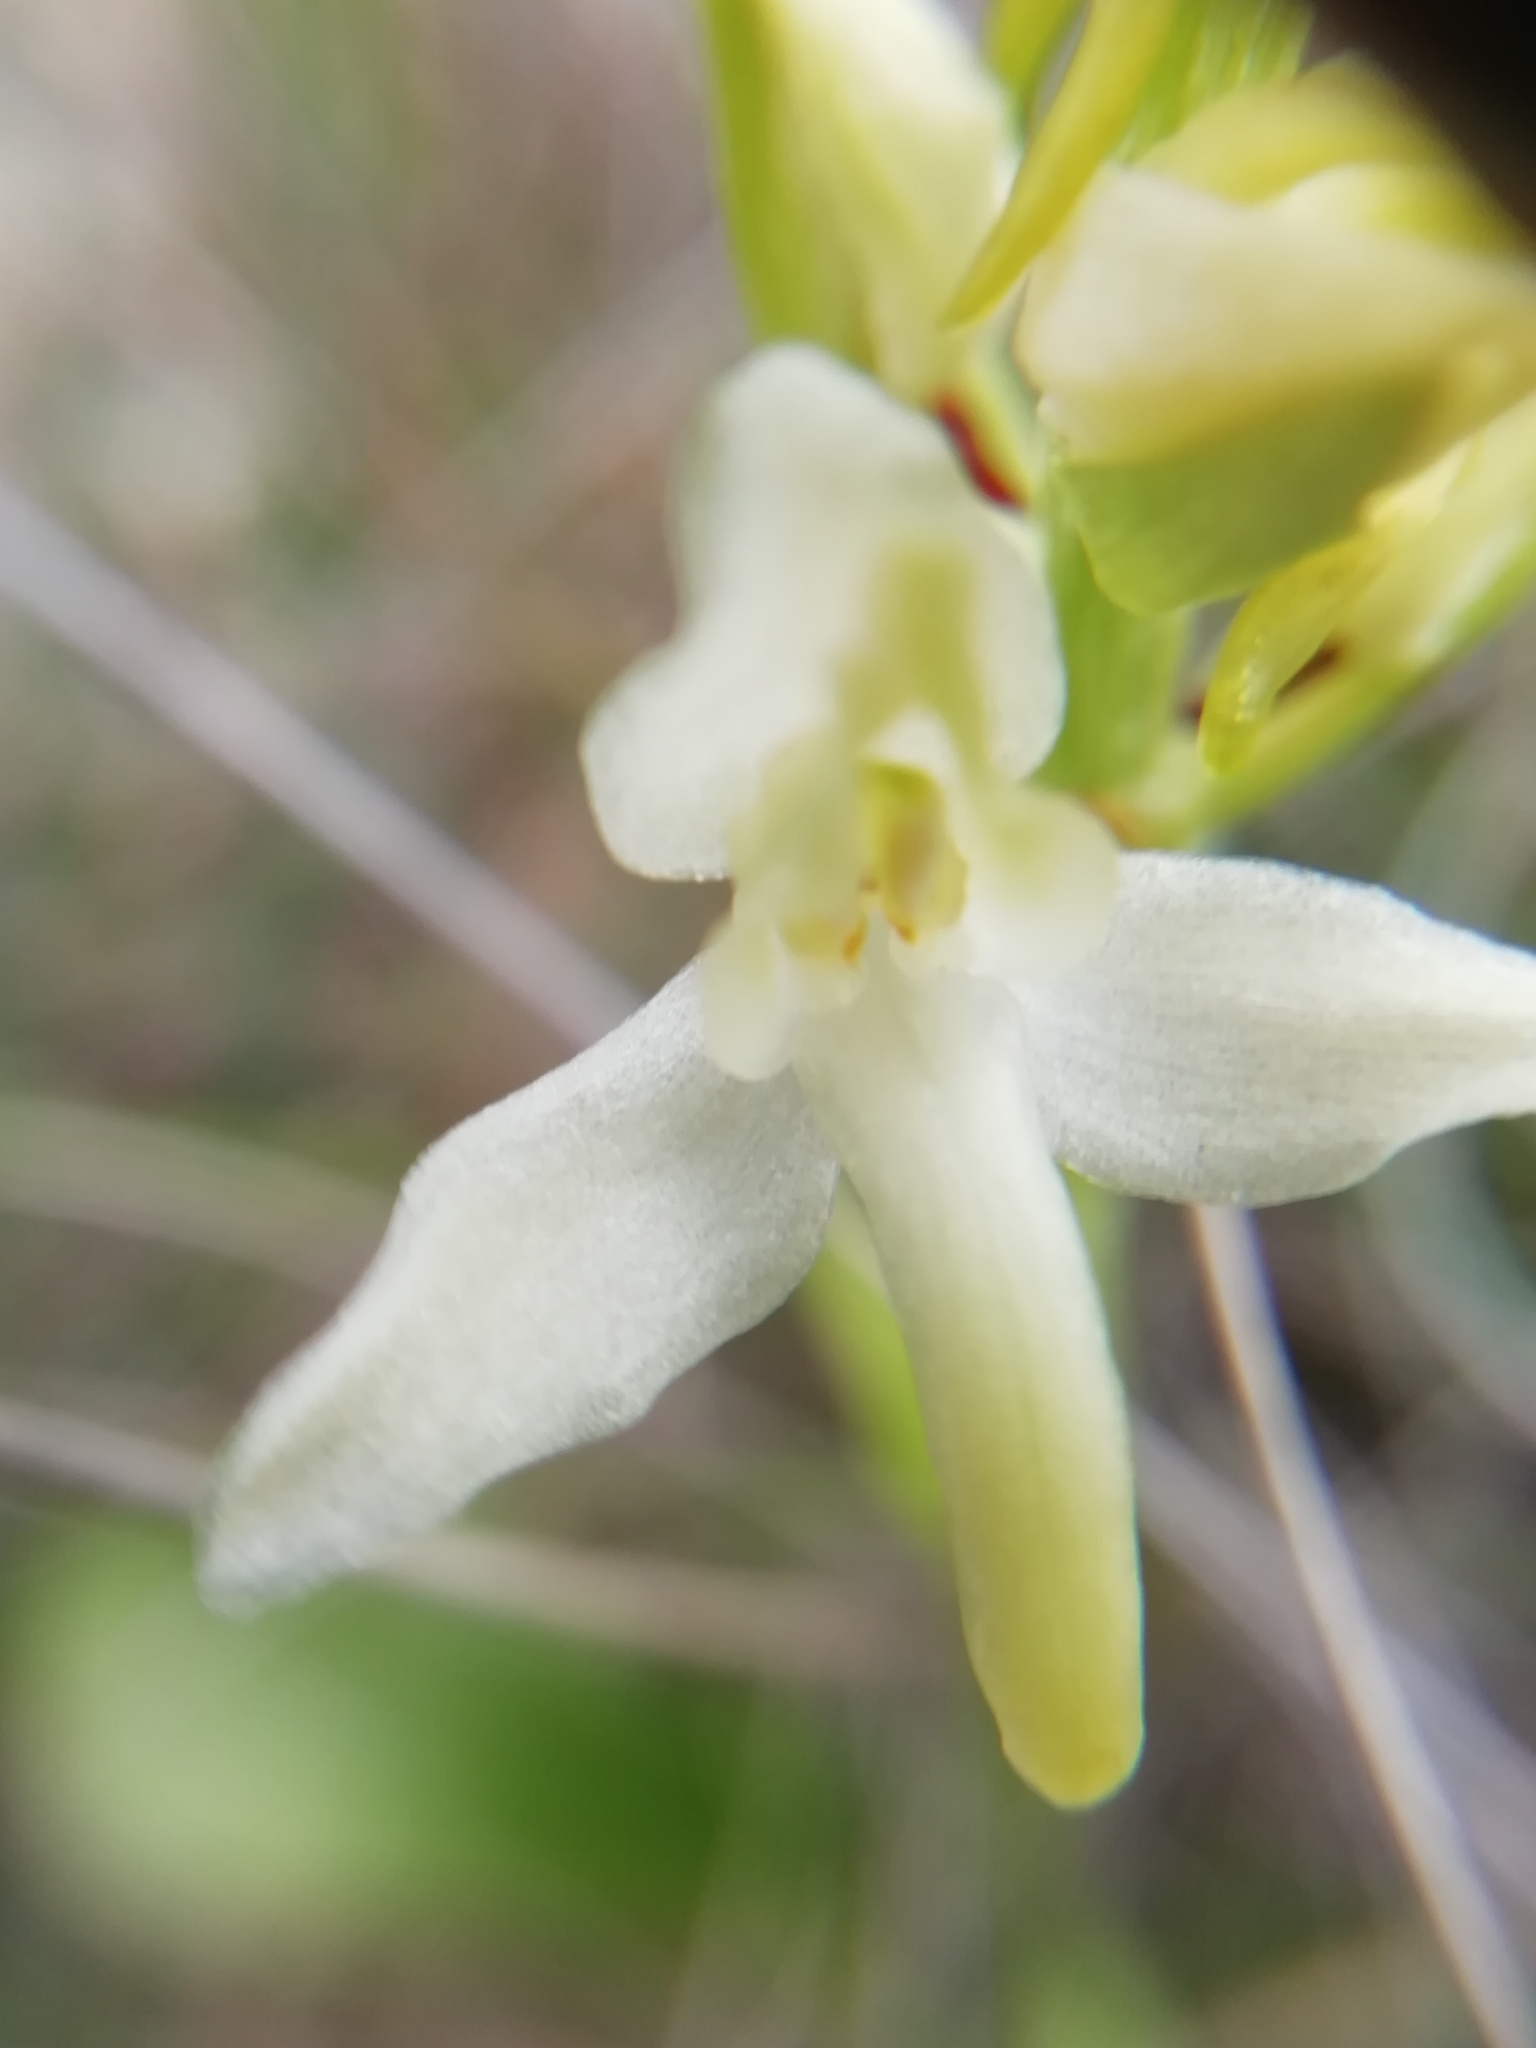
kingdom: Plantae
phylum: Tracheophyta
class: Liliopsida
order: Asparagales
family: Orchidaceae
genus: Platanthera
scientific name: Platanthera bifolia
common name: Lesser butterfly-orchid
